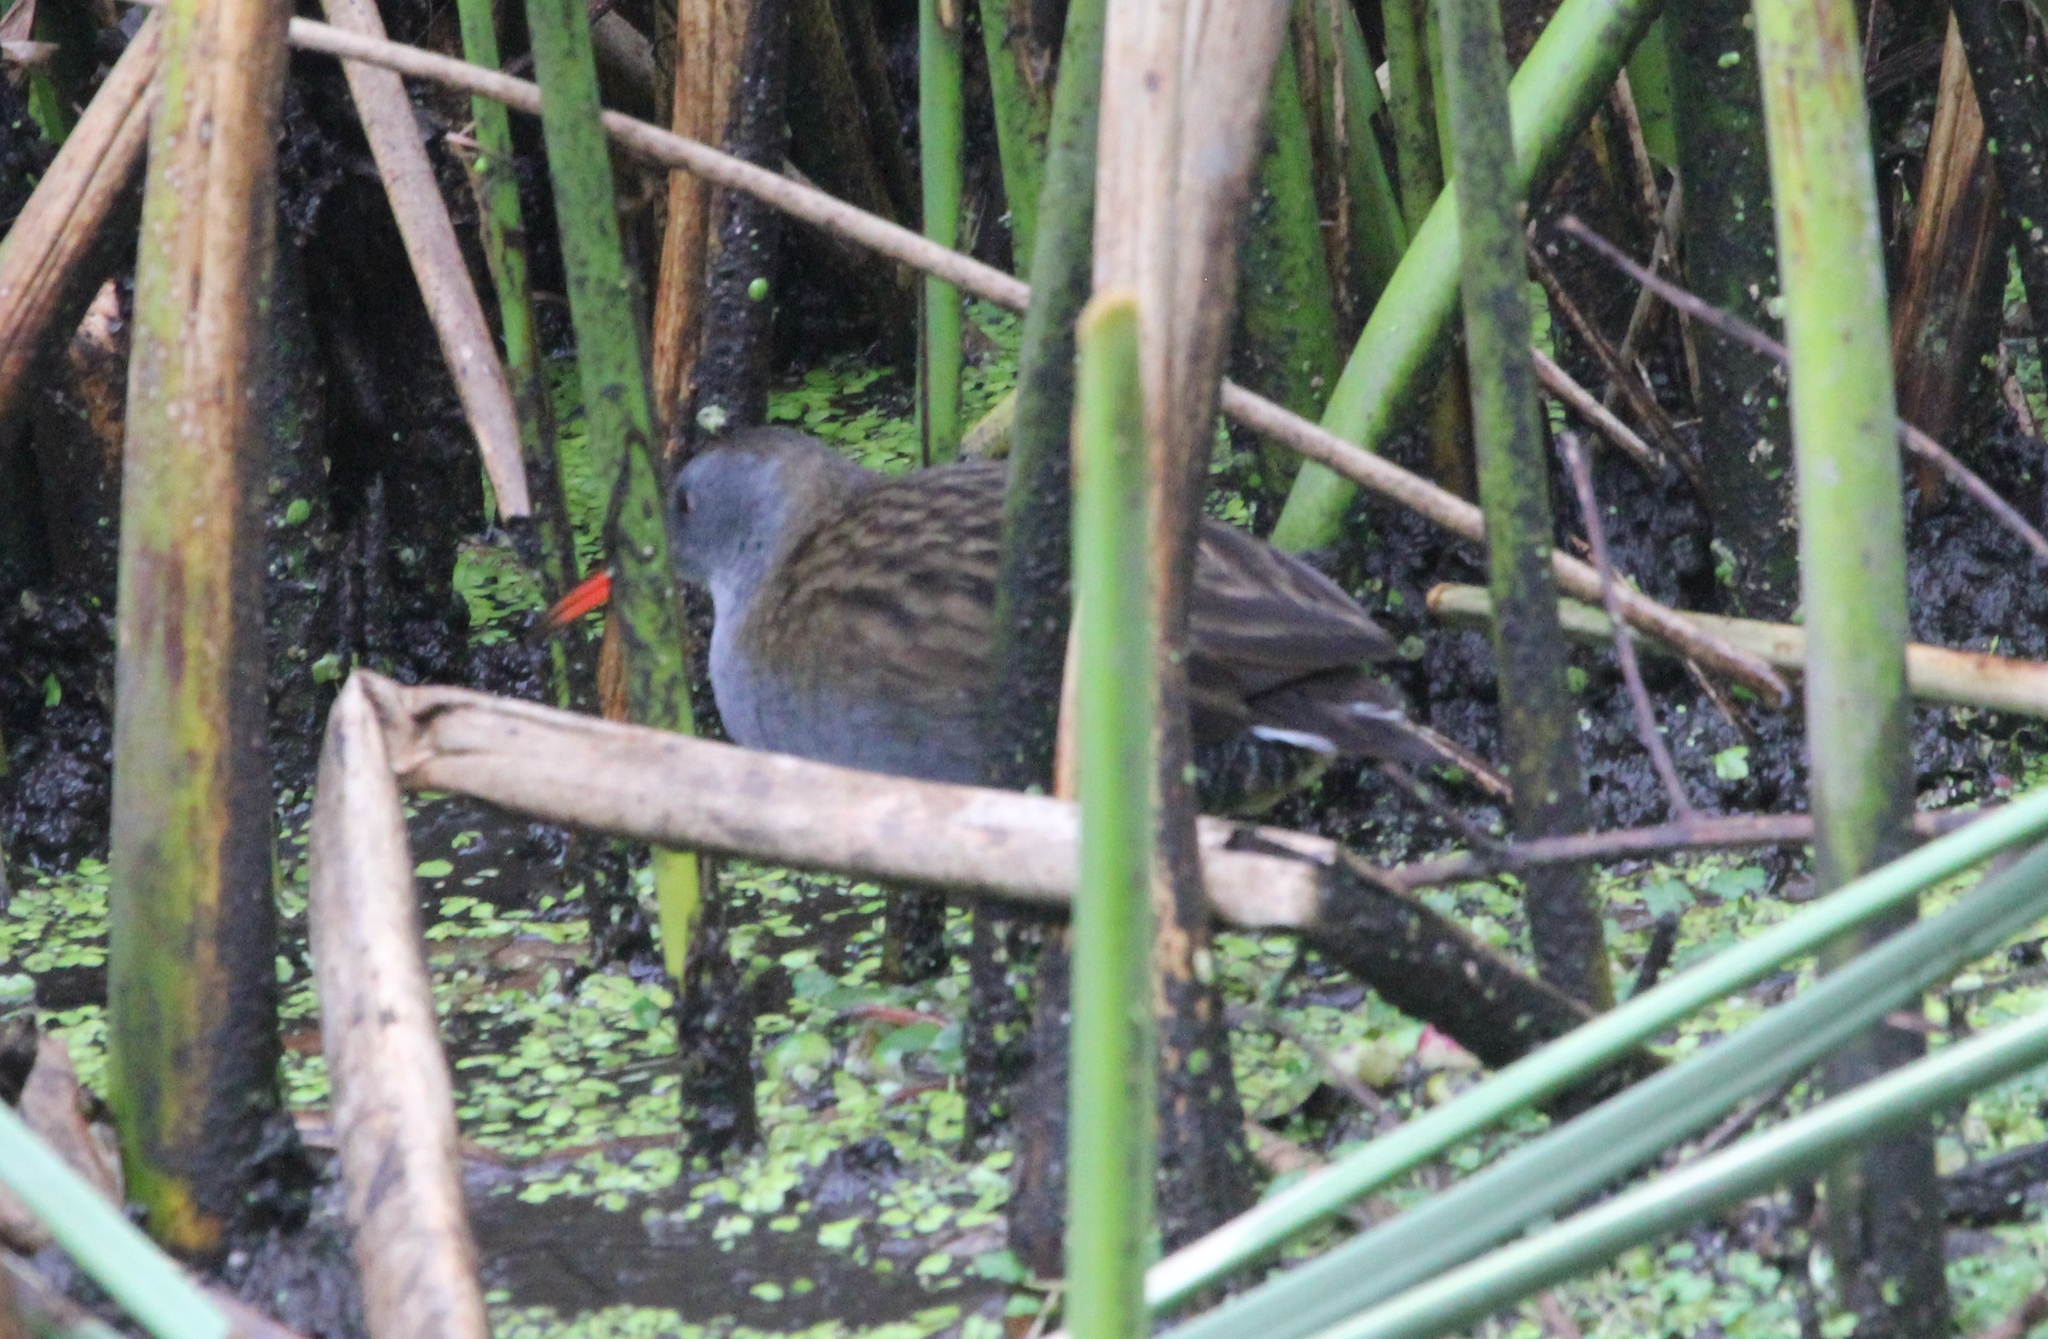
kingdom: Animalia
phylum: Chordata
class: Aves
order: Gruiformes
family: Rallidae
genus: Rallus
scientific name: Rallus semiplumbeus
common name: Bogota rail
